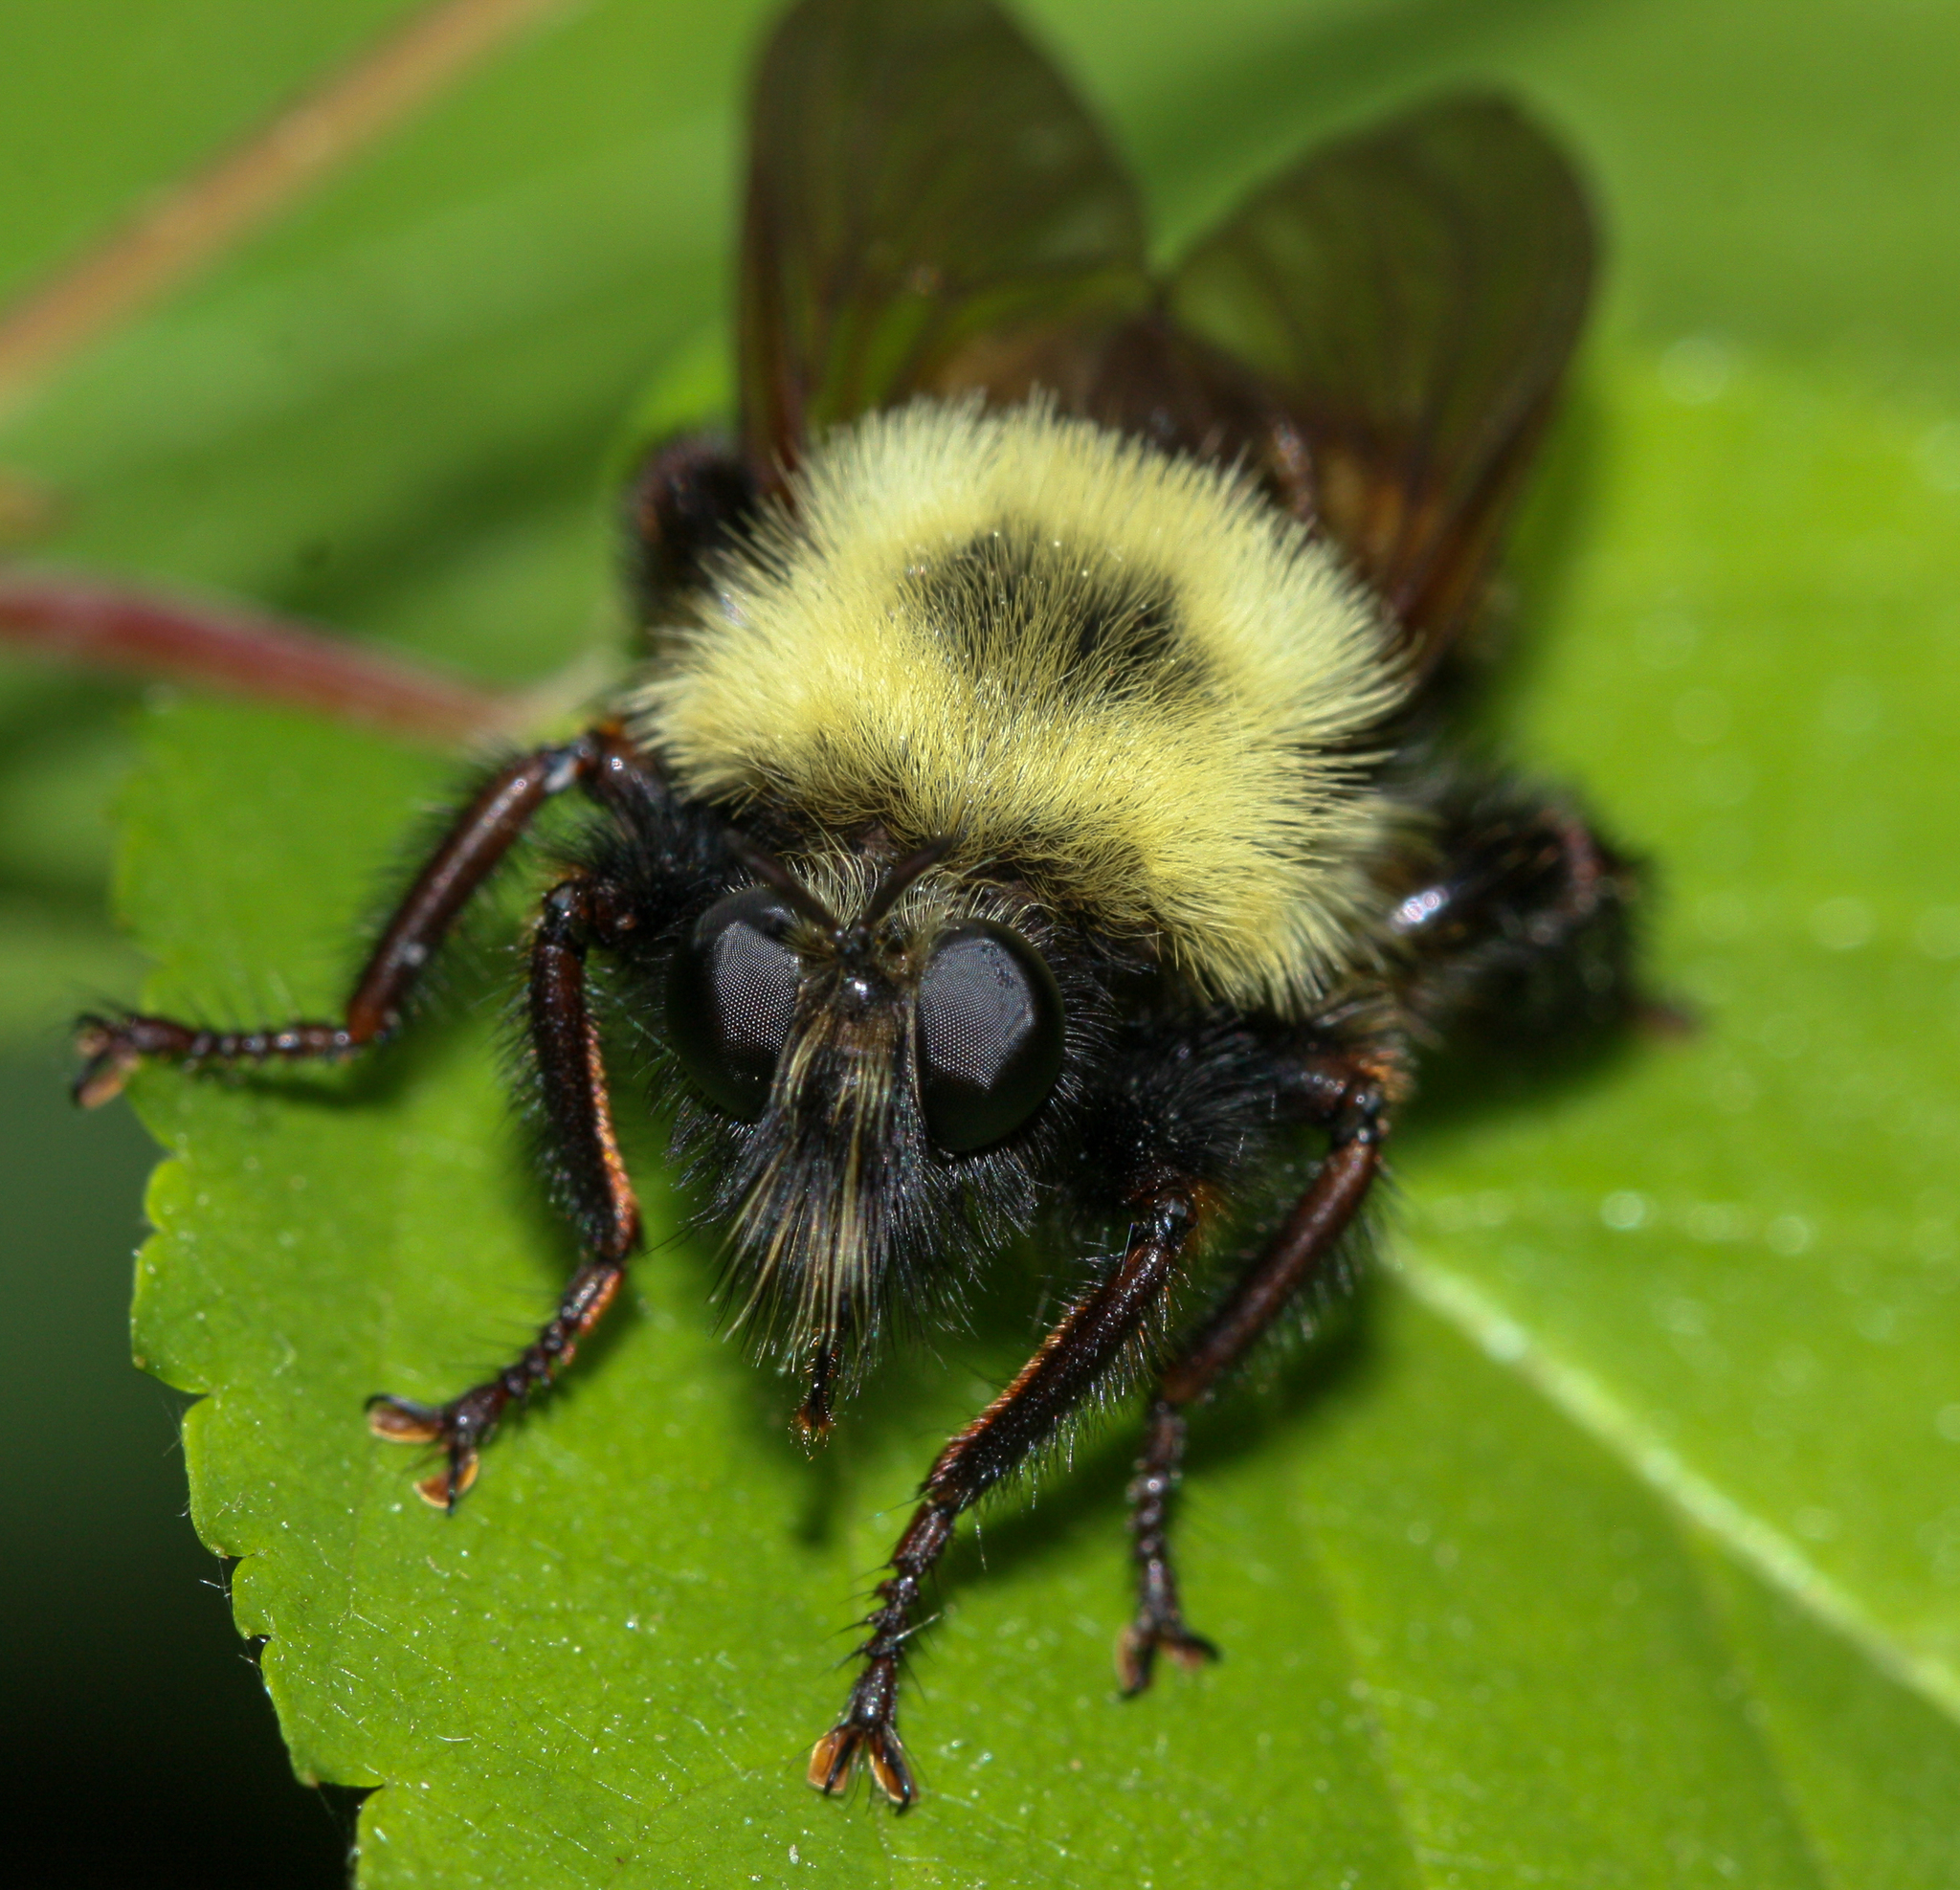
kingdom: Animalia
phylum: Arthropoda
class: Insecta
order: Diptera
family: Asilidae
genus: Laphria
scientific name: Laphria thoracica
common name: Bumble bee mimic robber fly
